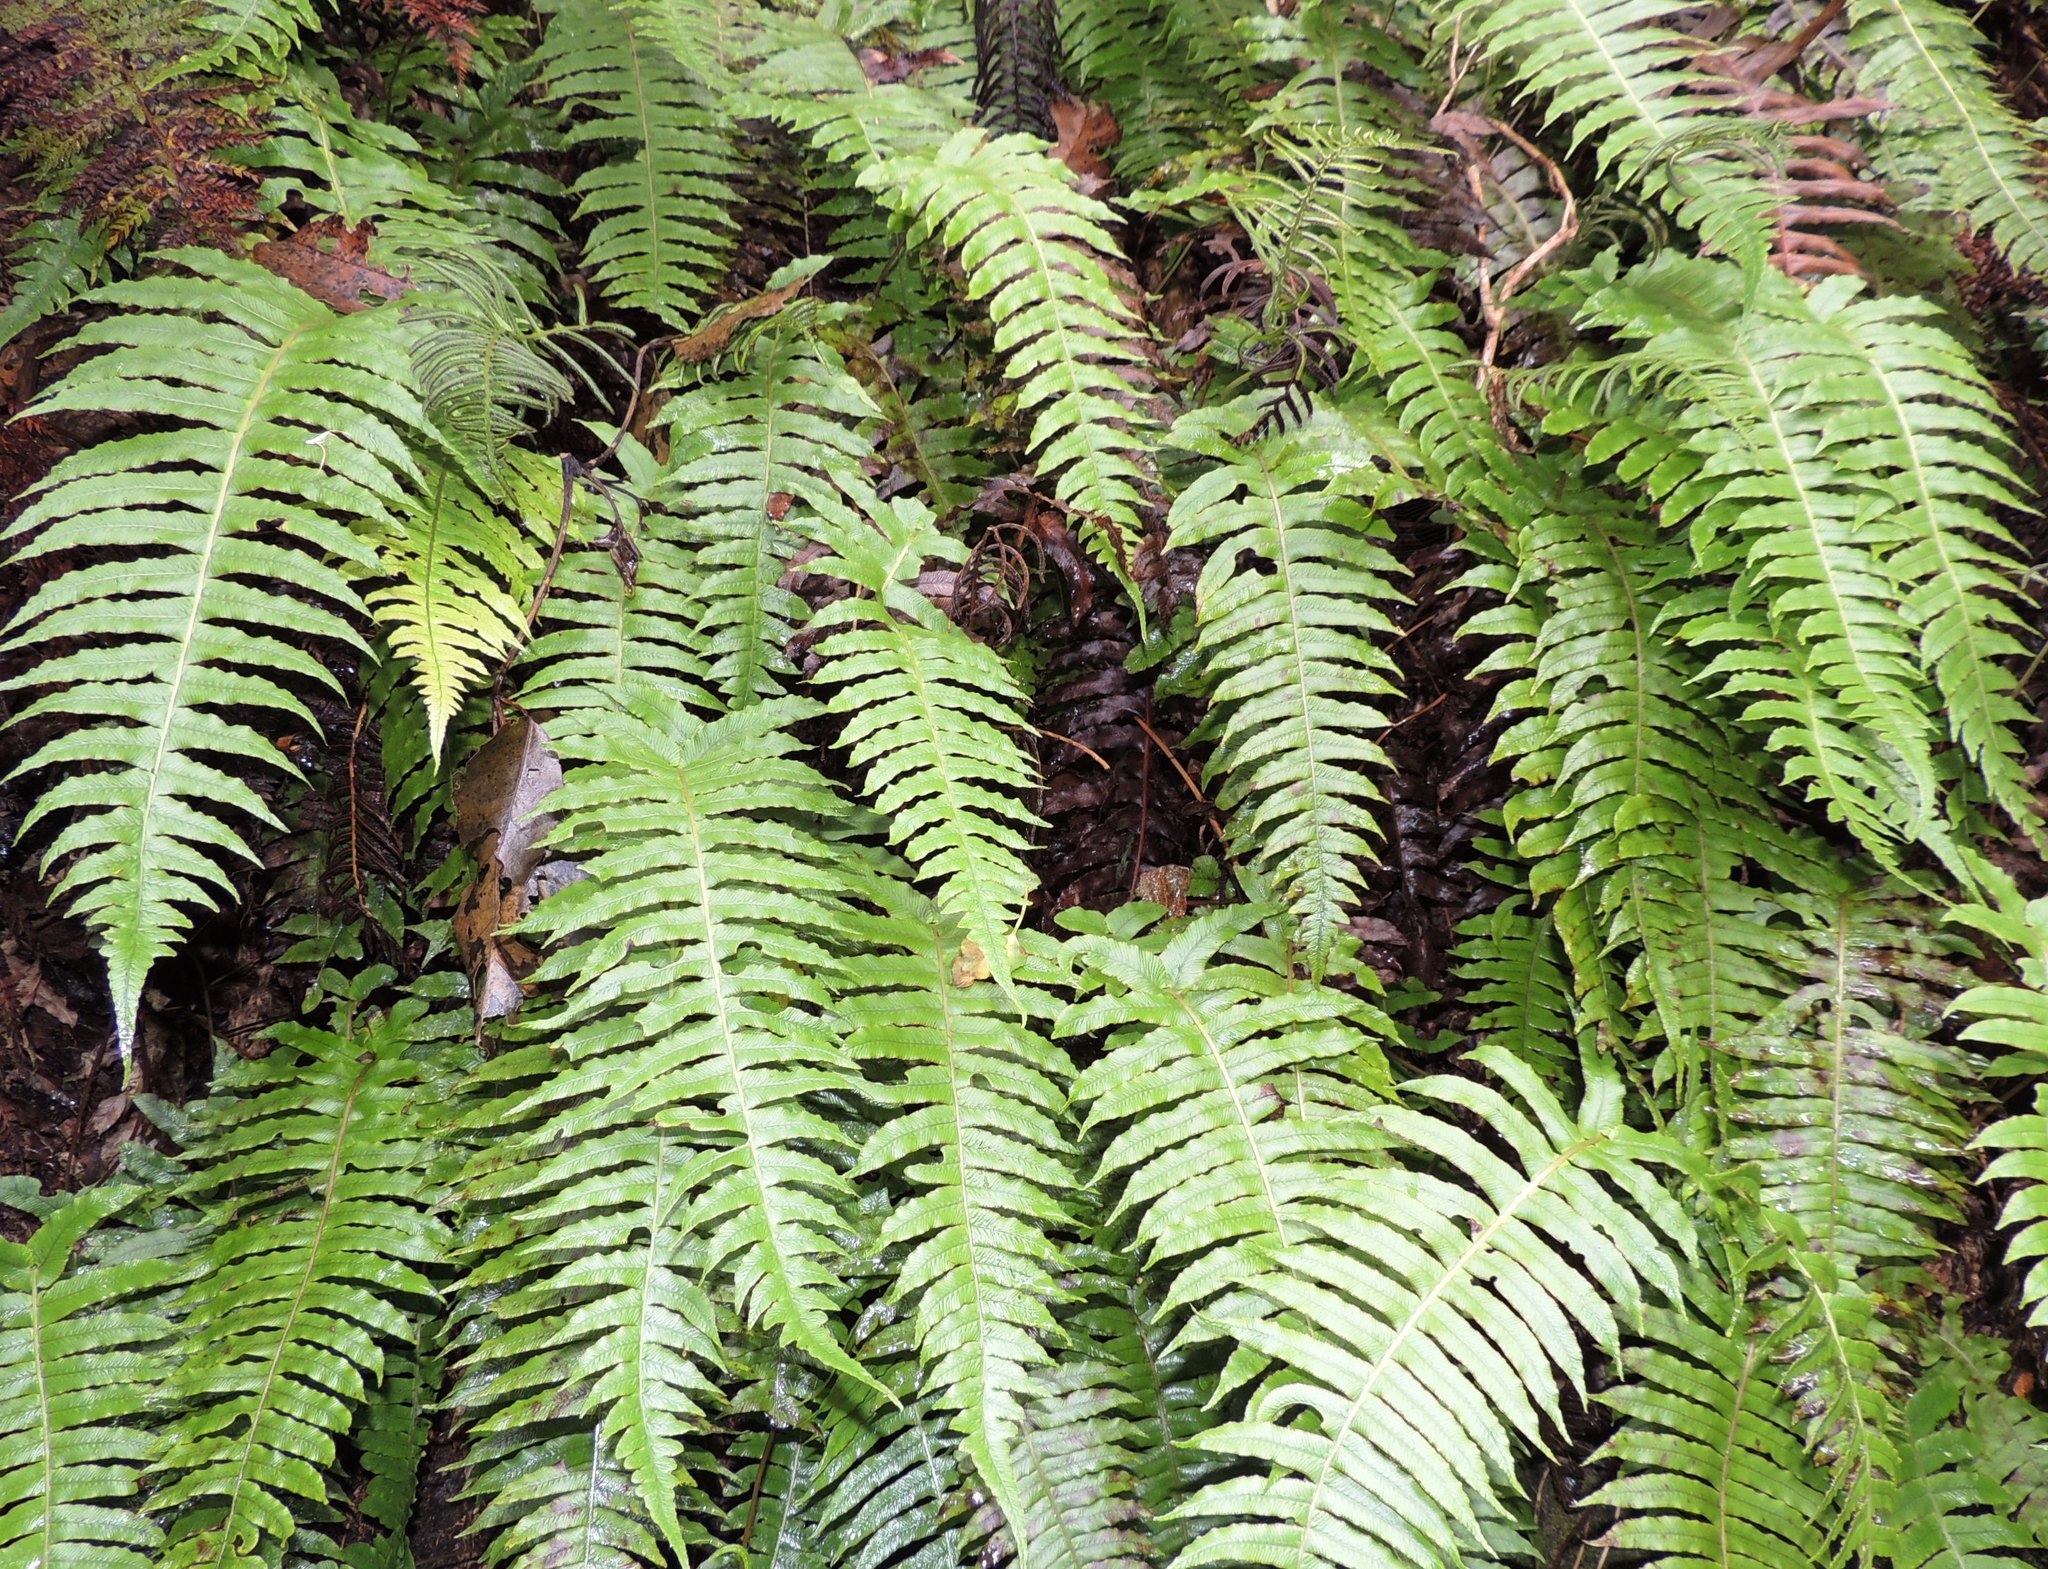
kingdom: Plantae
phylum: Tracheophyta
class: Polypodiopsida
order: Polypodiales
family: Blechnaceae
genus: Cranfillia
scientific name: Cranfillia deltoides
